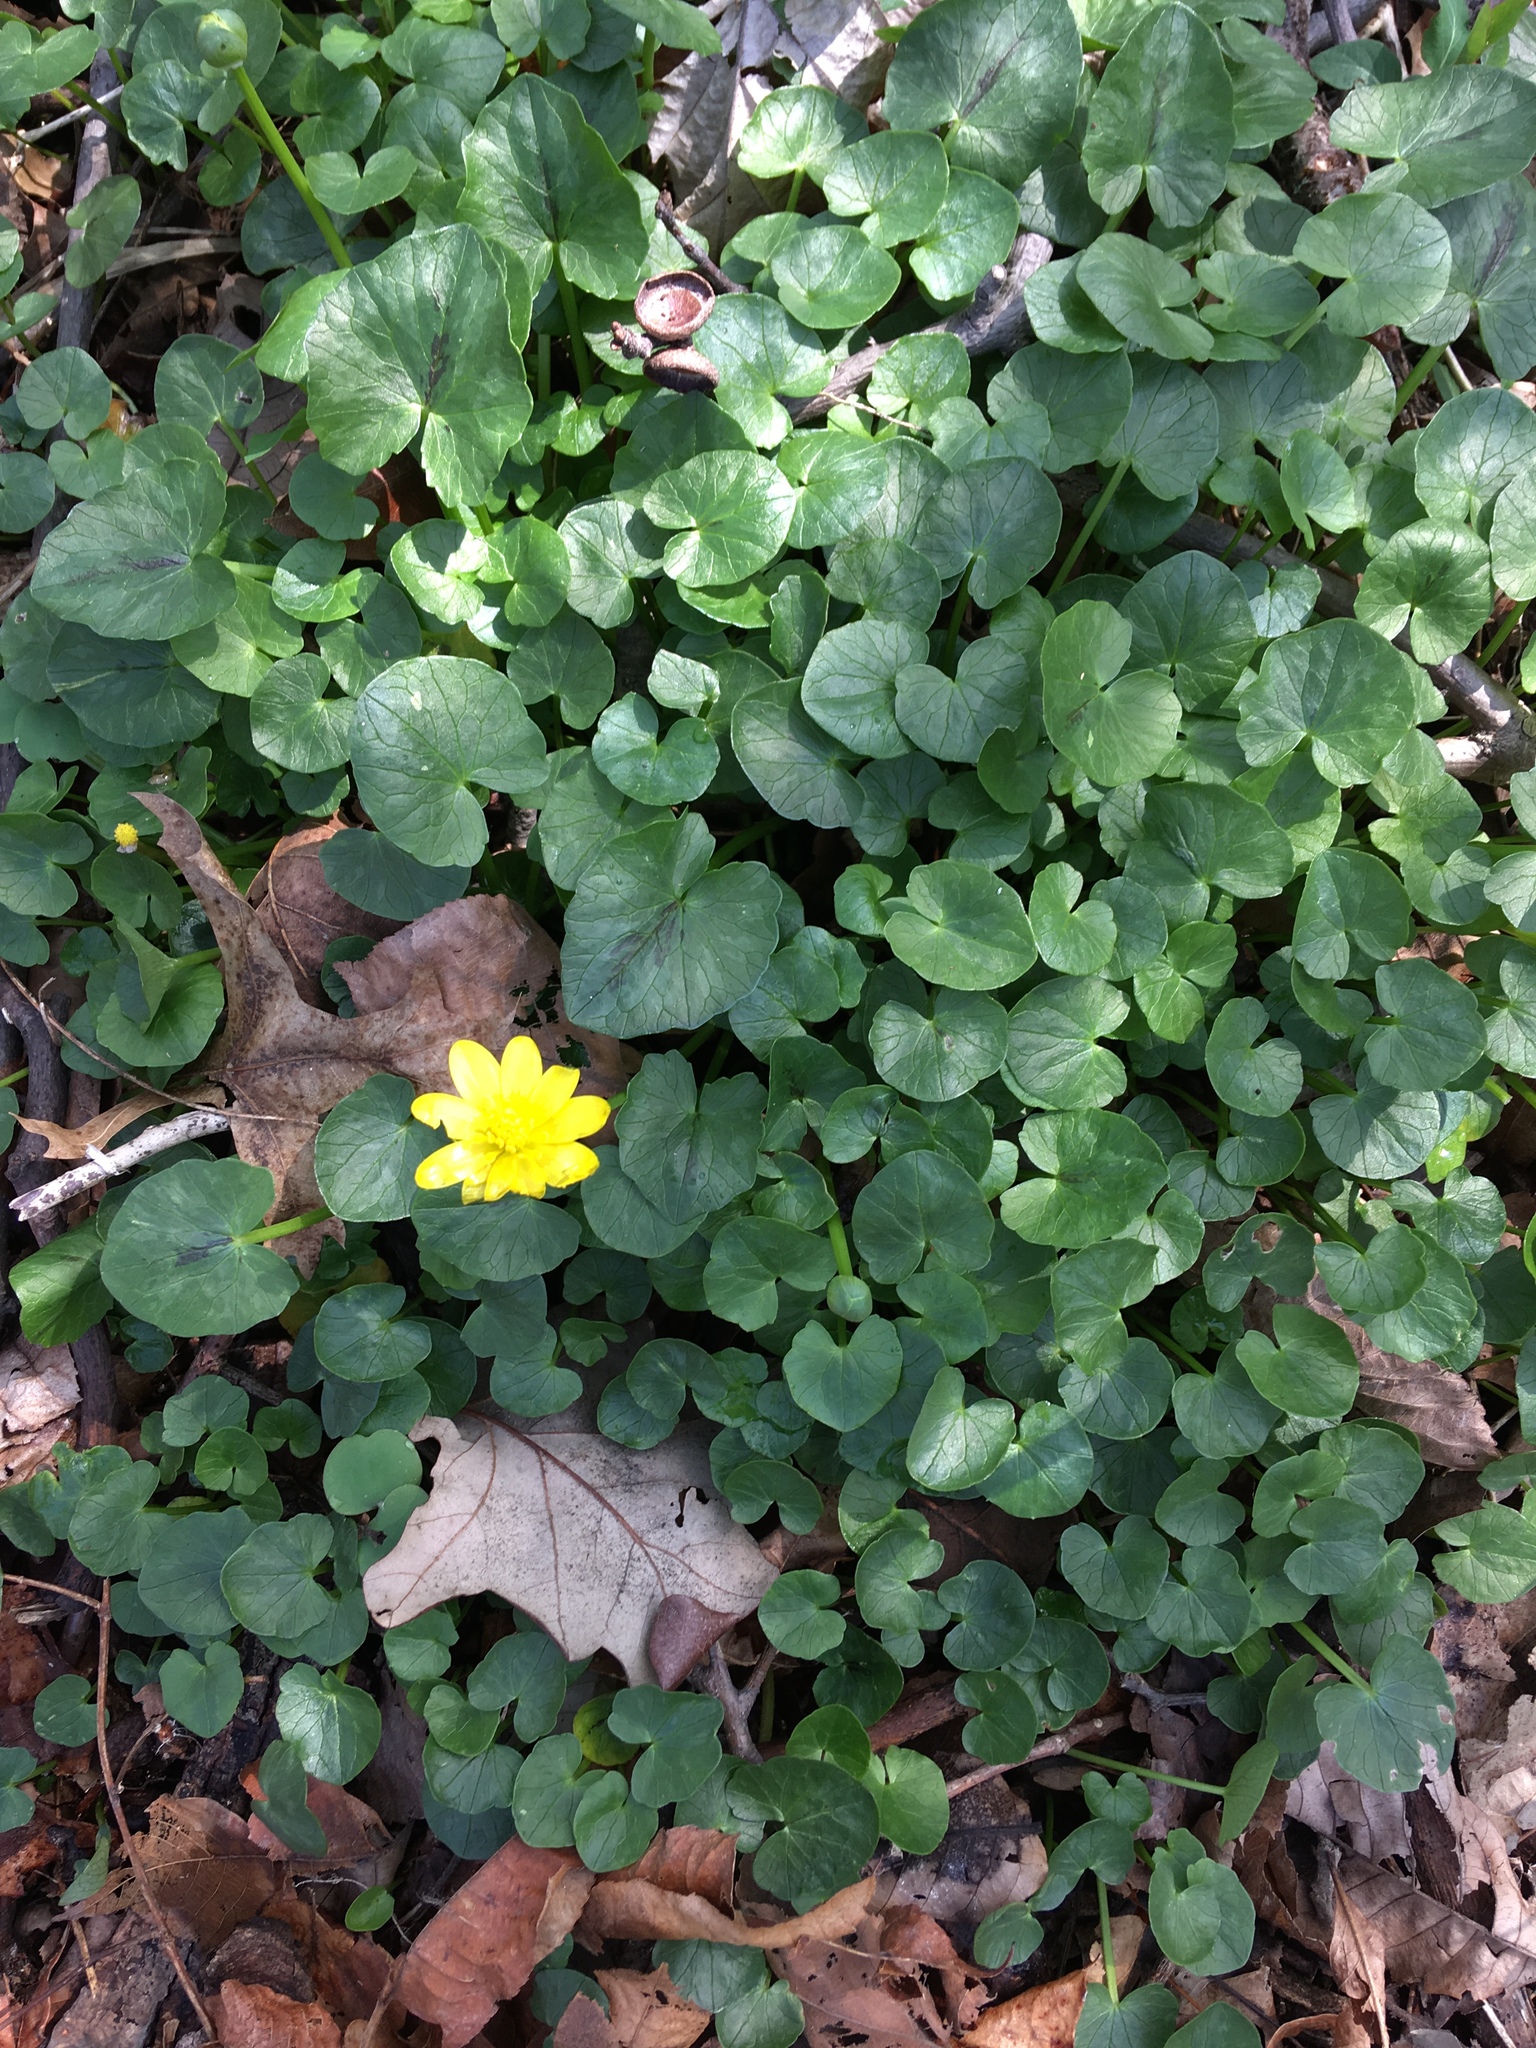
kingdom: Plantae
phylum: Tracheophyta
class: Magnoliopsida
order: Ranunculales
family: Ranunculaceae
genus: Ficaria
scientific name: Ficaria verna
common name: Lesser celandine
